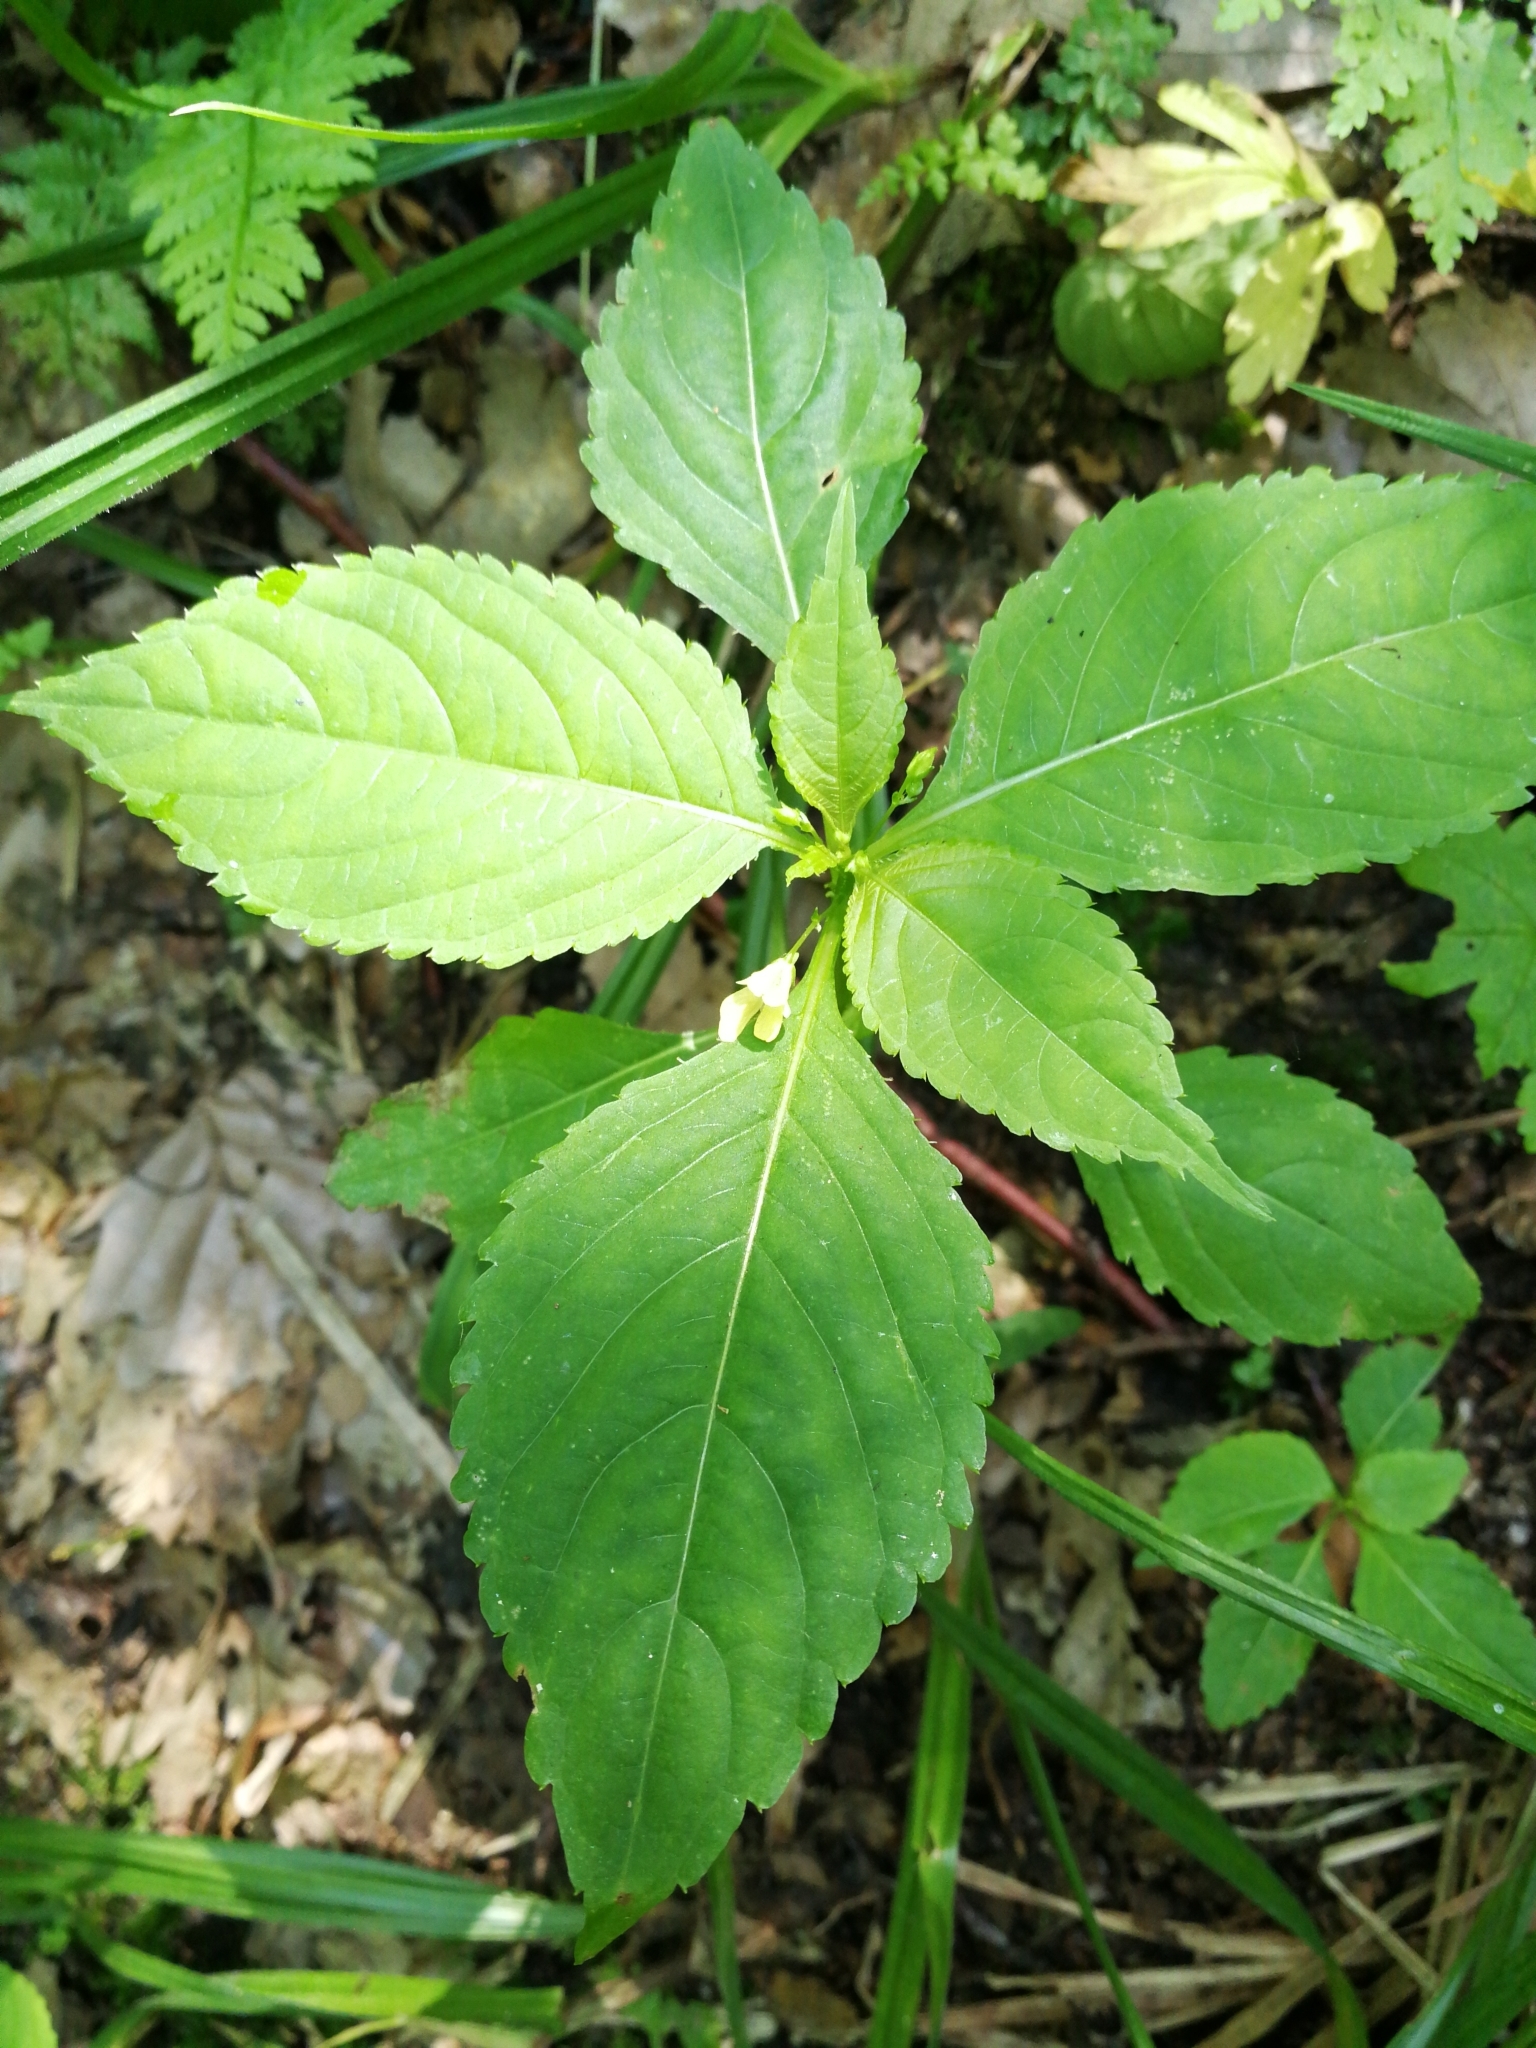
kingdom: Plantae
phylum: Tracheophyta
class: Magnoliopsida
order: Ericales
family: Balsaminaceae
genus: Impatiens
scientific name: Impatiens parviflora
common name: Small balsam
